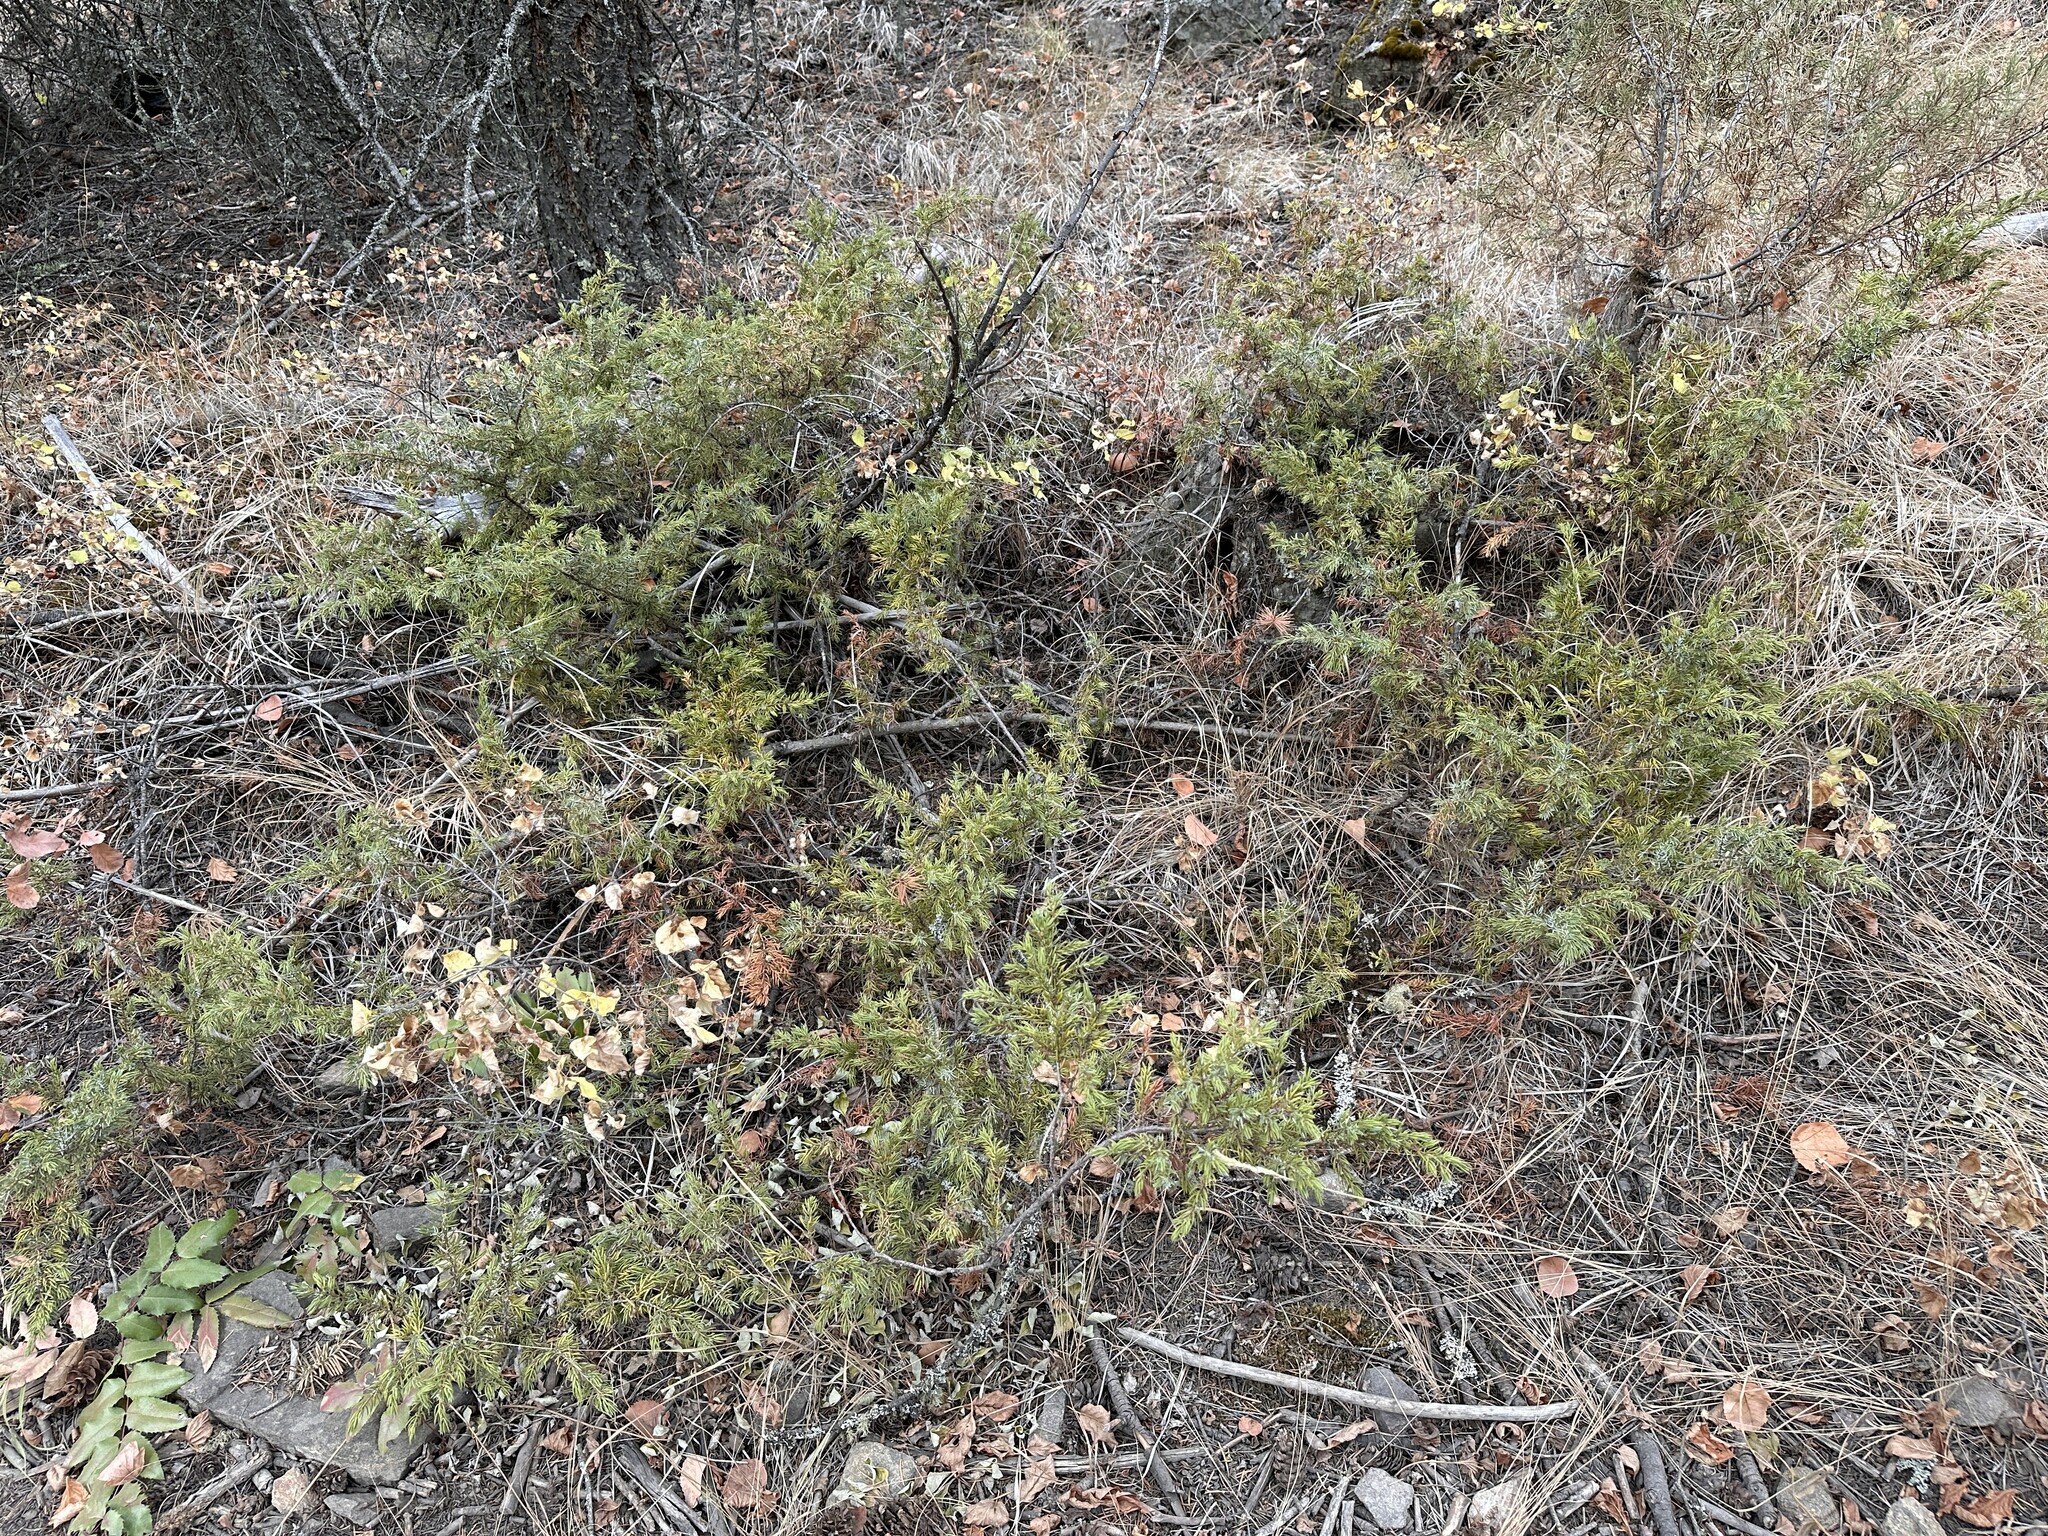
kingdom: Plantae
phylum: Tracheophyta
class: Pinopsida
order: Pinales
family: Cupressaceae
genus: Juniperus
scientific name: Juniperus communis
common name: Common juniper
